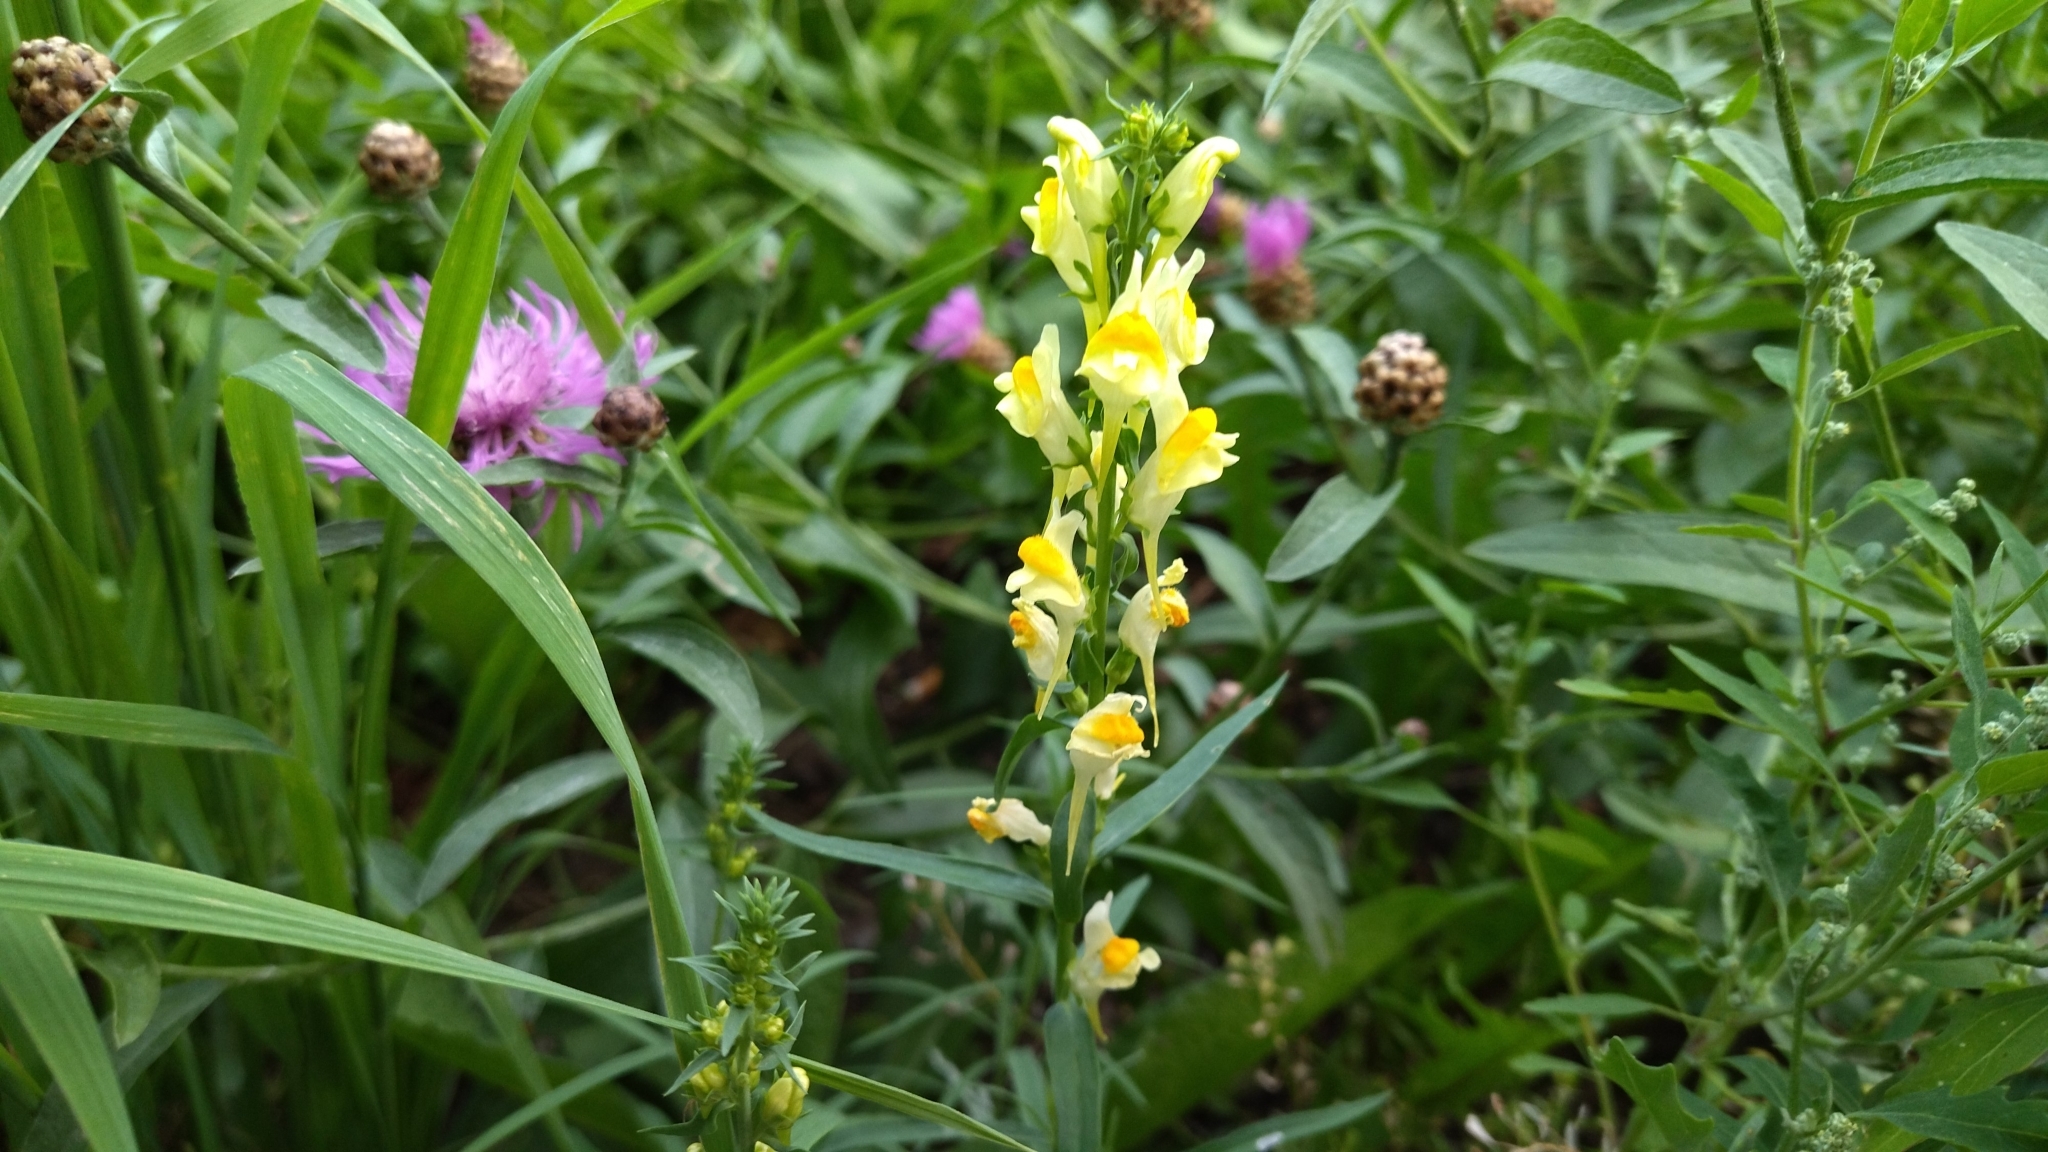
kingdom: Plantae
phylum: Tracheophyta
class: Magnoliopsida
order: Lamiales
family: Plantaginaceae
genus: Linaria
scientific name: Linaria vulgaris
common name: Butter and eggs
